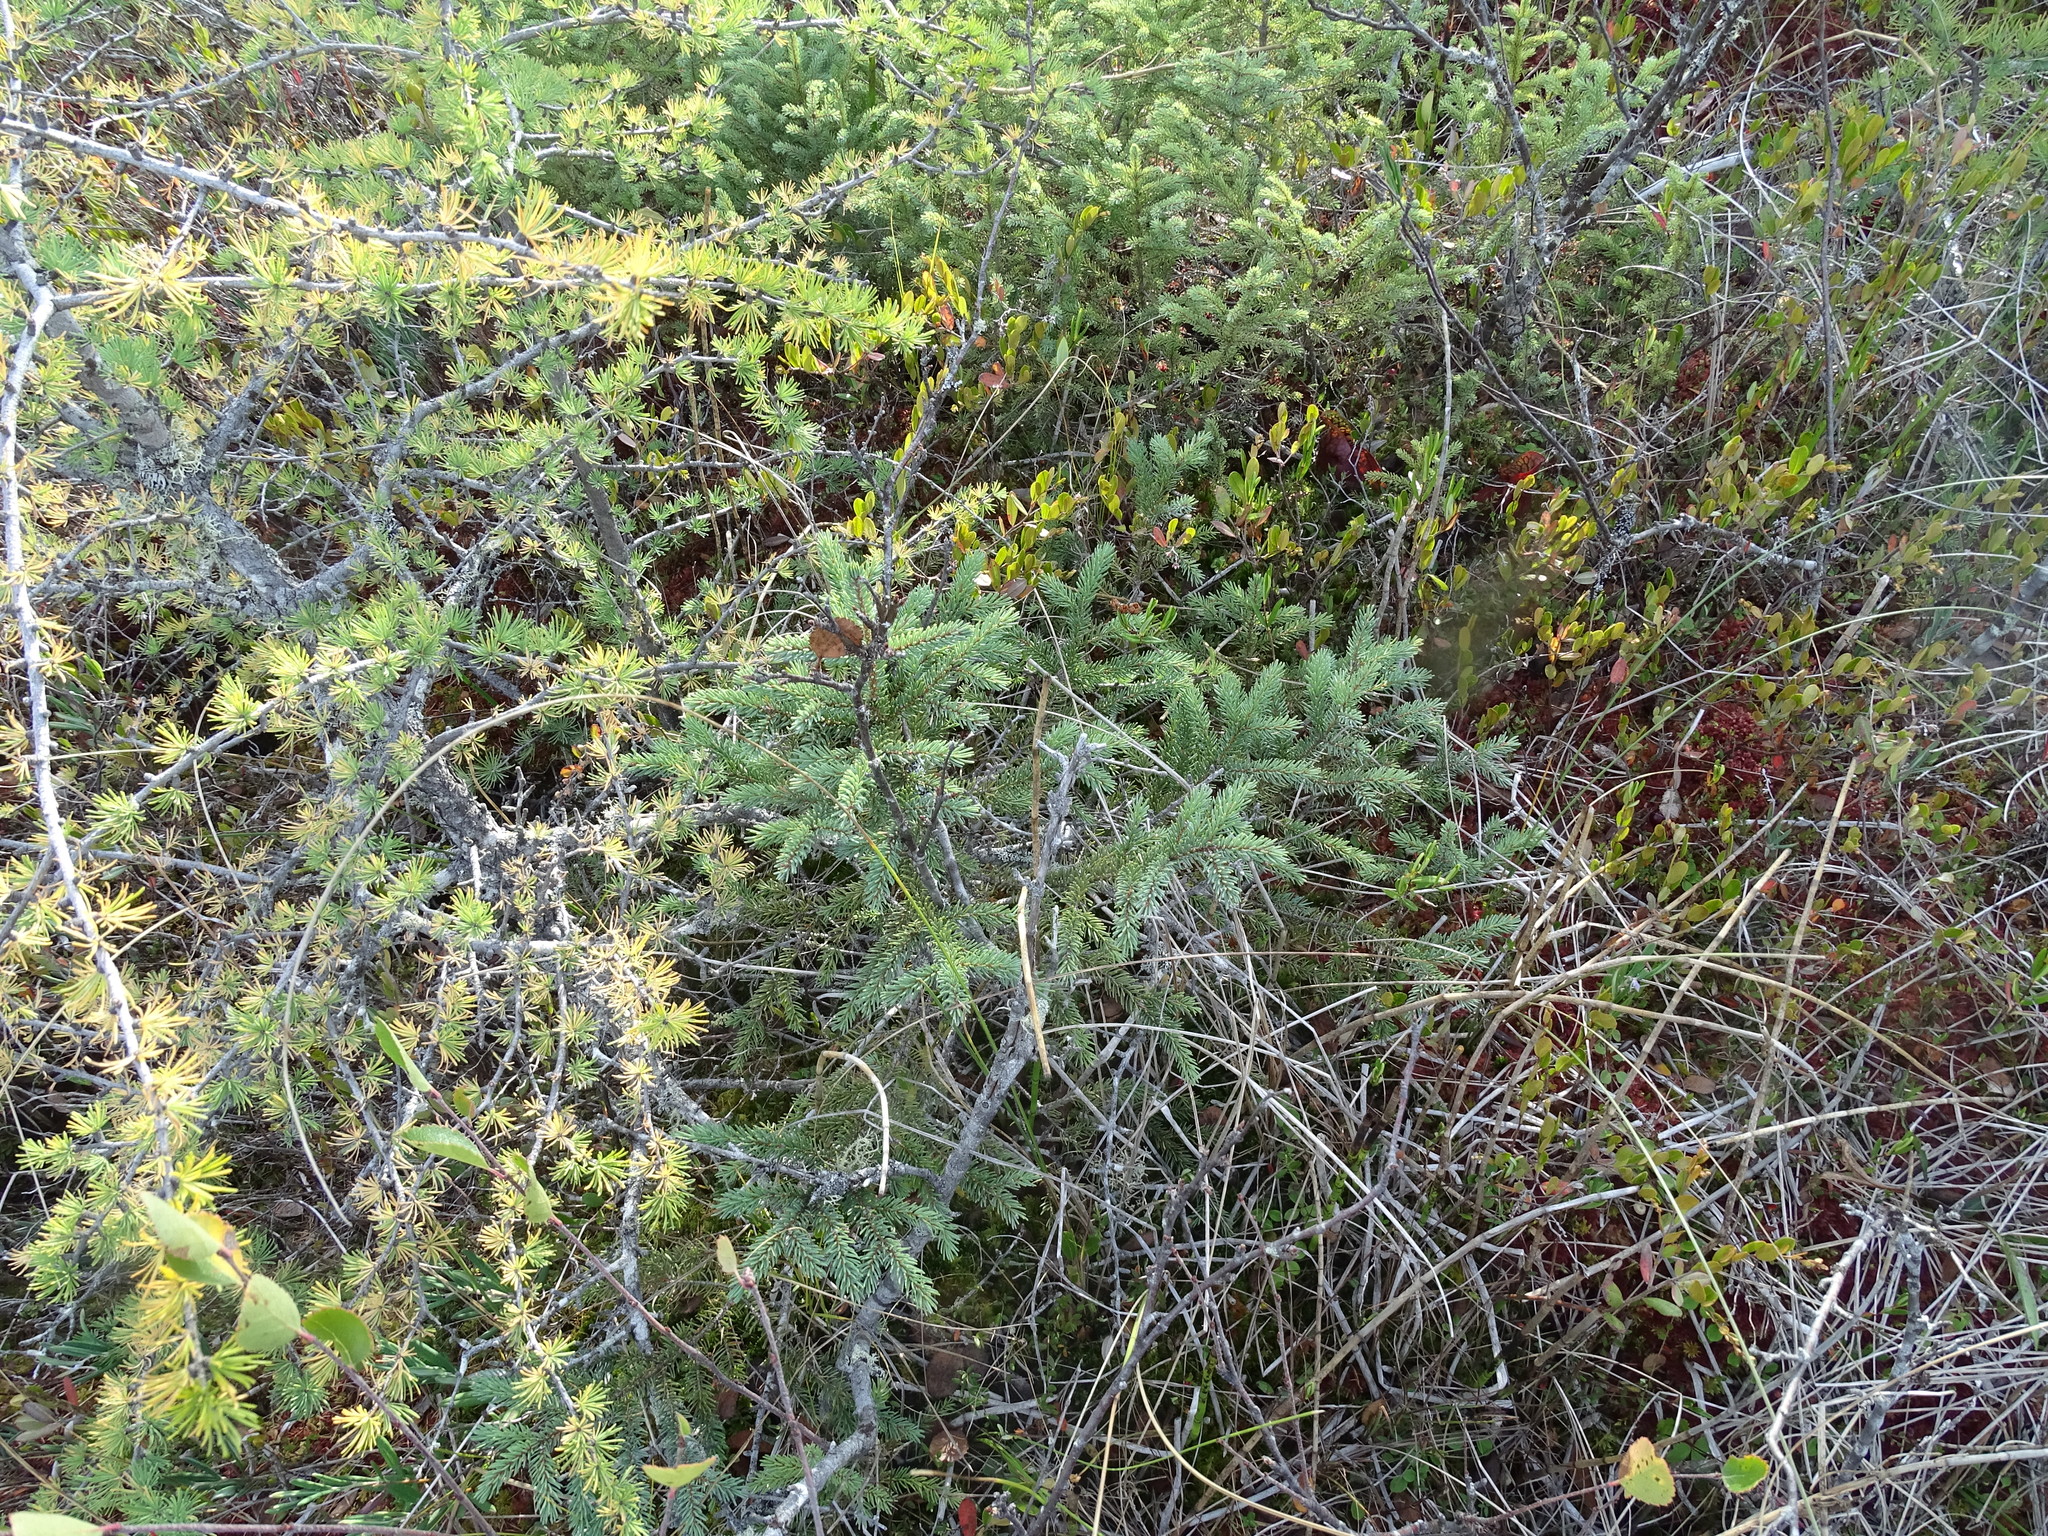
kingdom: Plantae
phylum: Tracheophyta
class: Pinopsida
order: Pinales
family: Pinaceae
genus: Picea
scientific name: Picea mariana
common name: Black spruce
